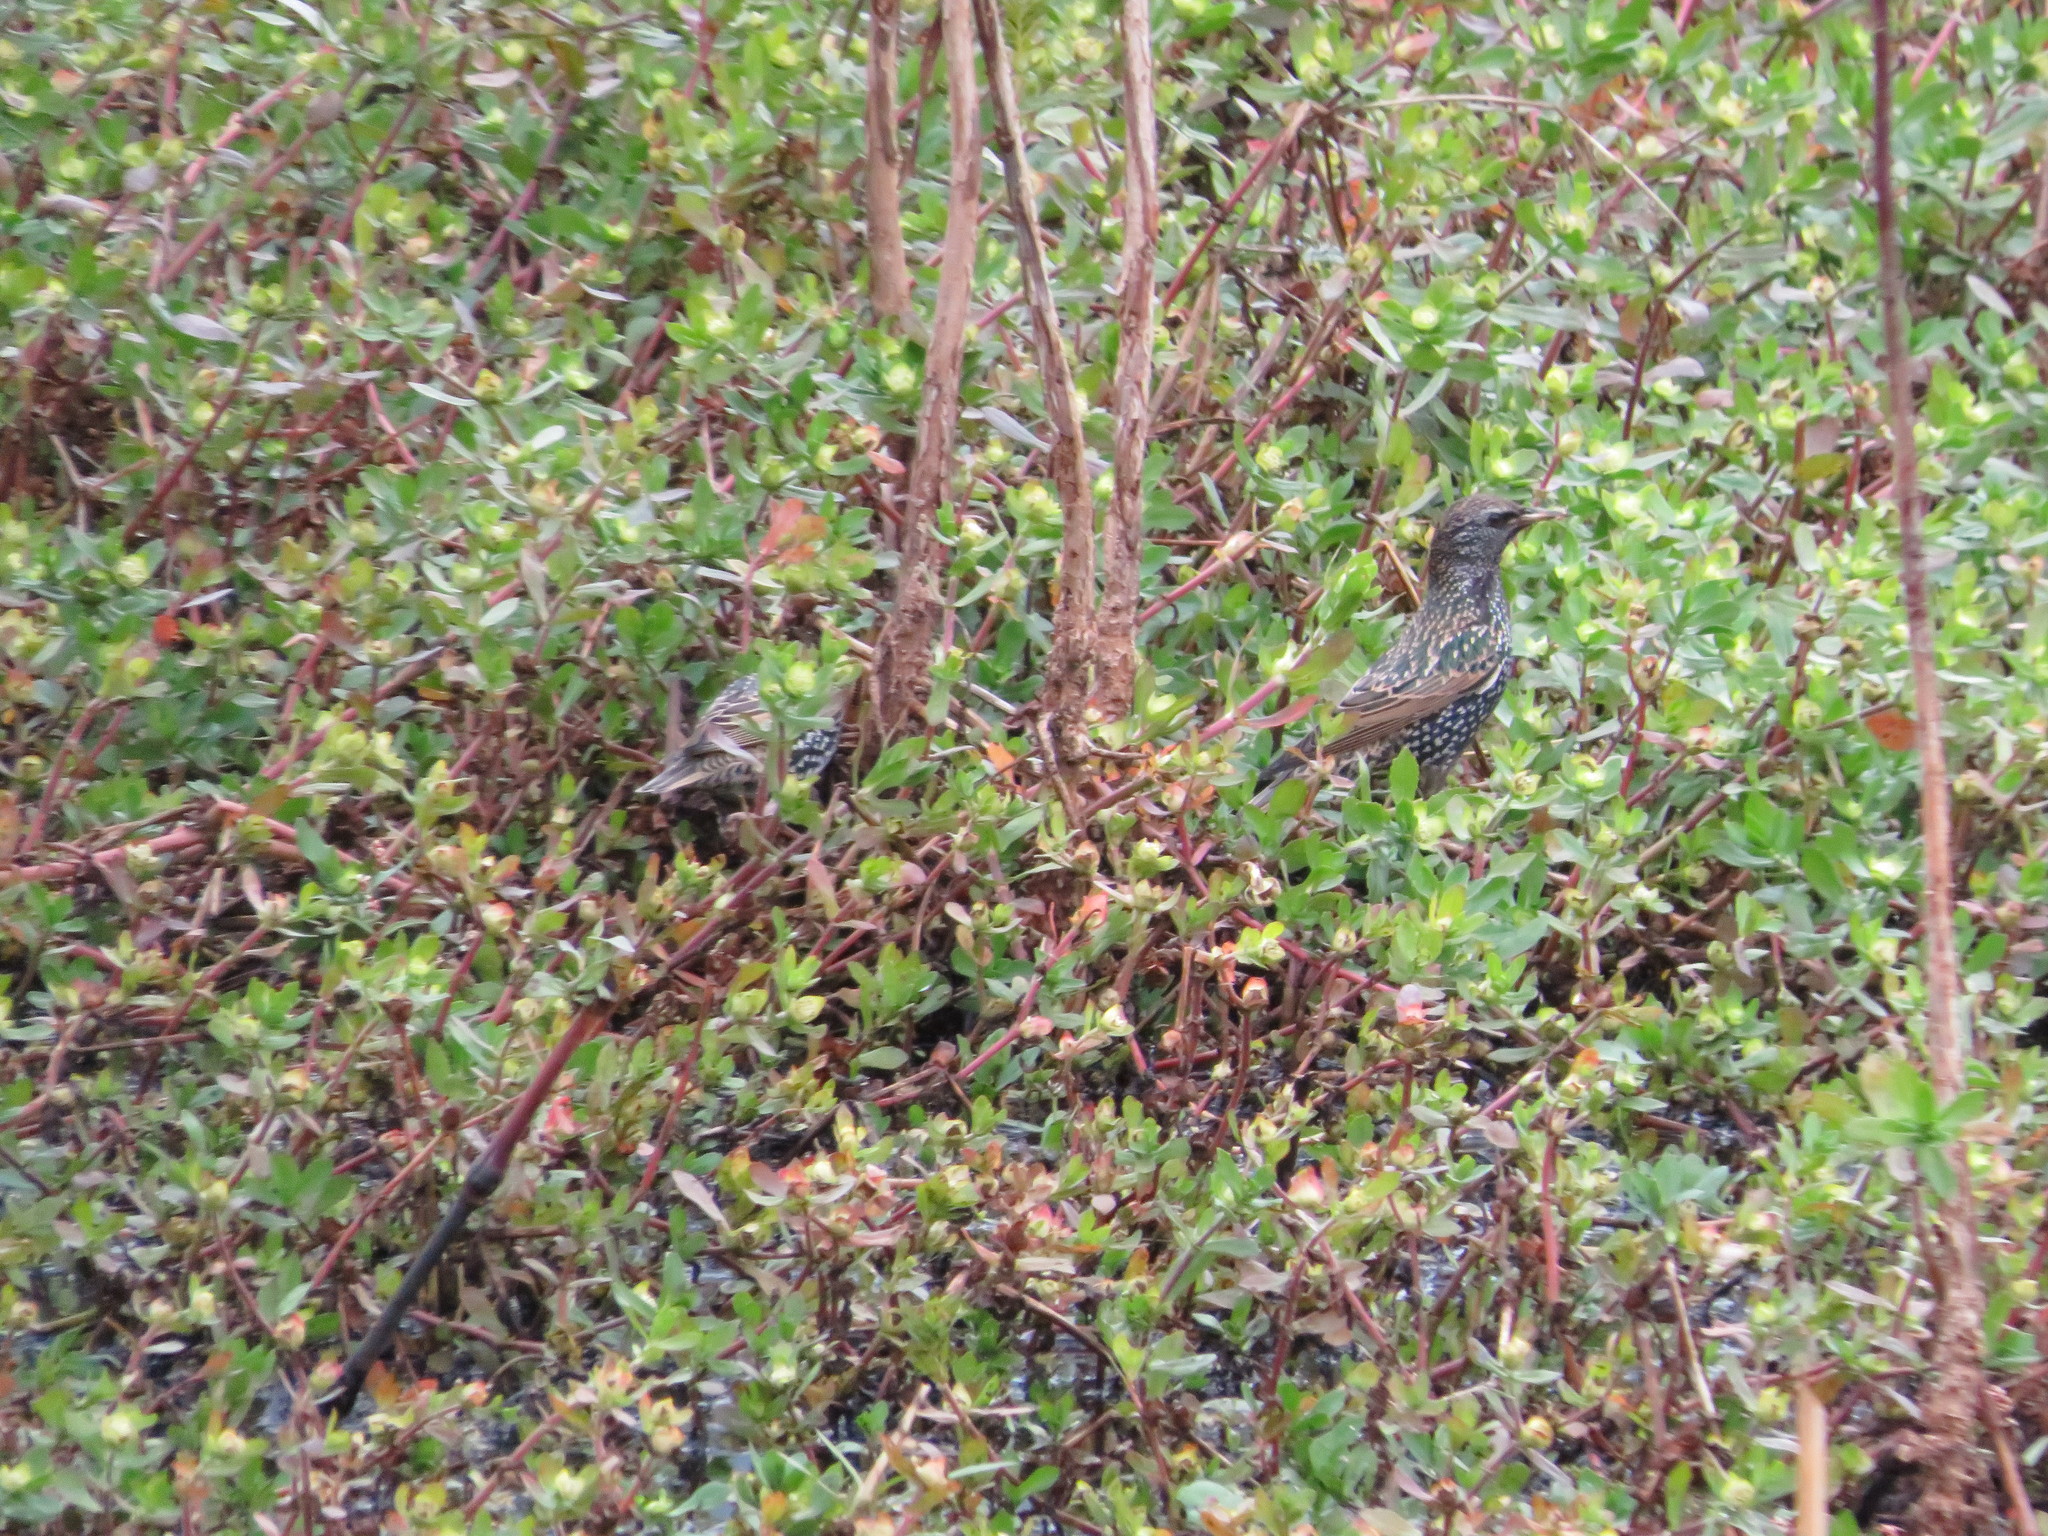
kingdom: Animalia
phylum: Chordata
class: Aves
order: Passeriformes
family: Sturnidae
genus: Sturnus
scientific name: Sturnus vulgaris
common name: Common starling
